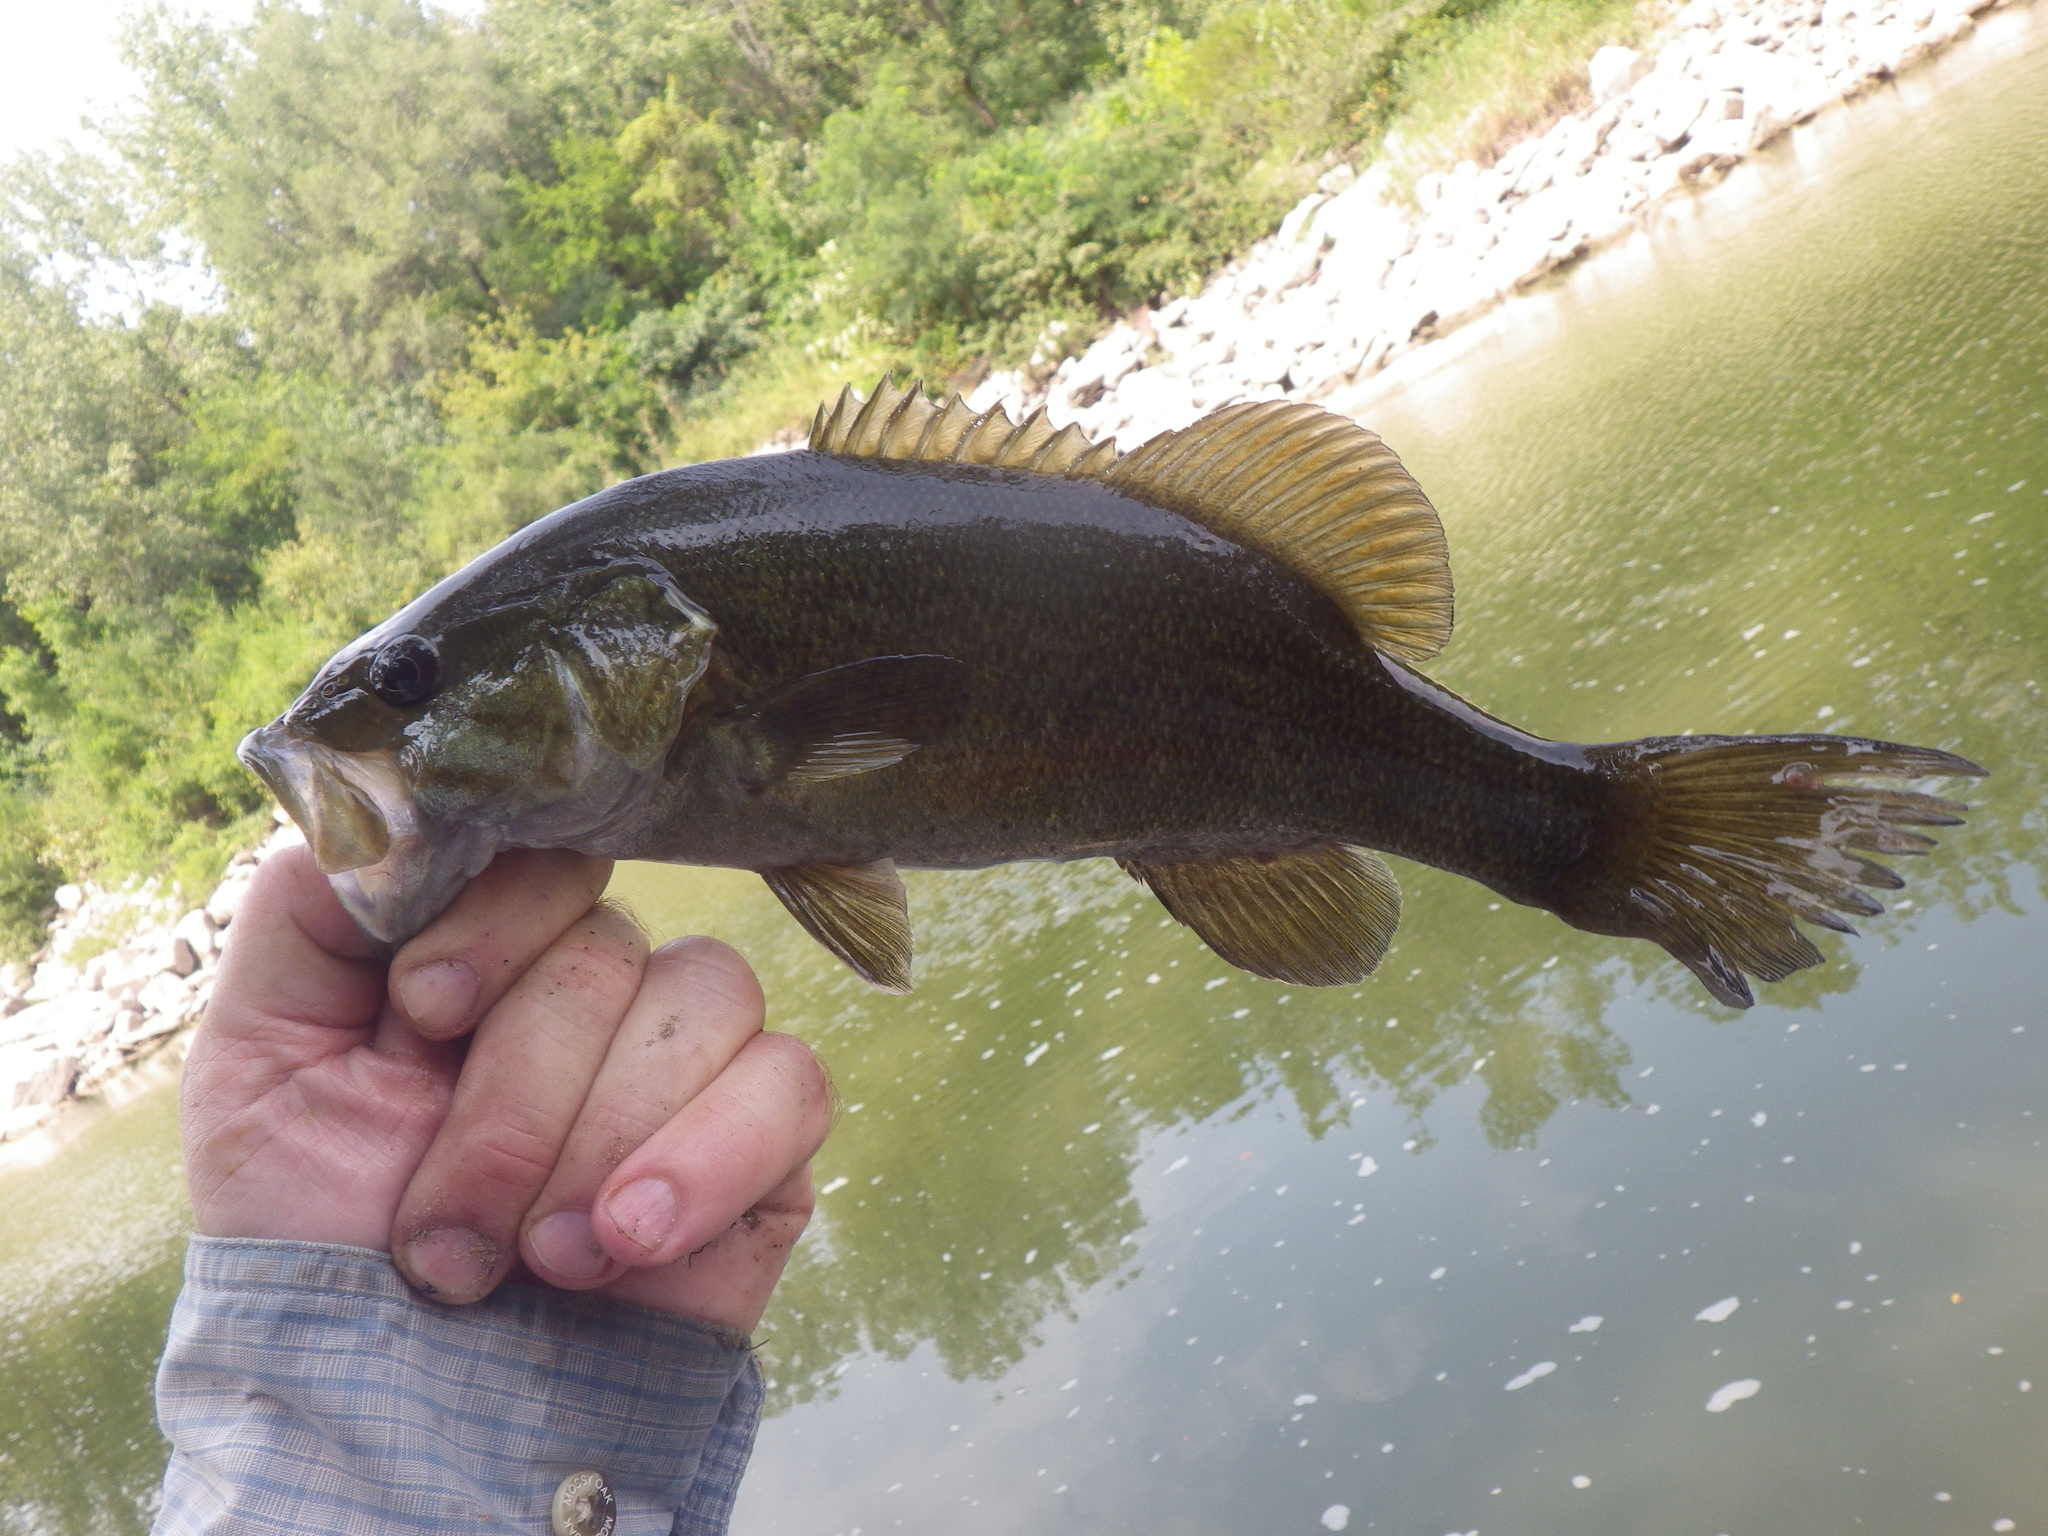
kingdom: Animalia
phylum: Chordata
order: Perciformes
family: Centrarchidae
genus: Micropterus
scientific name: Micropterus dolomieu
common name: Smallmouth bass
